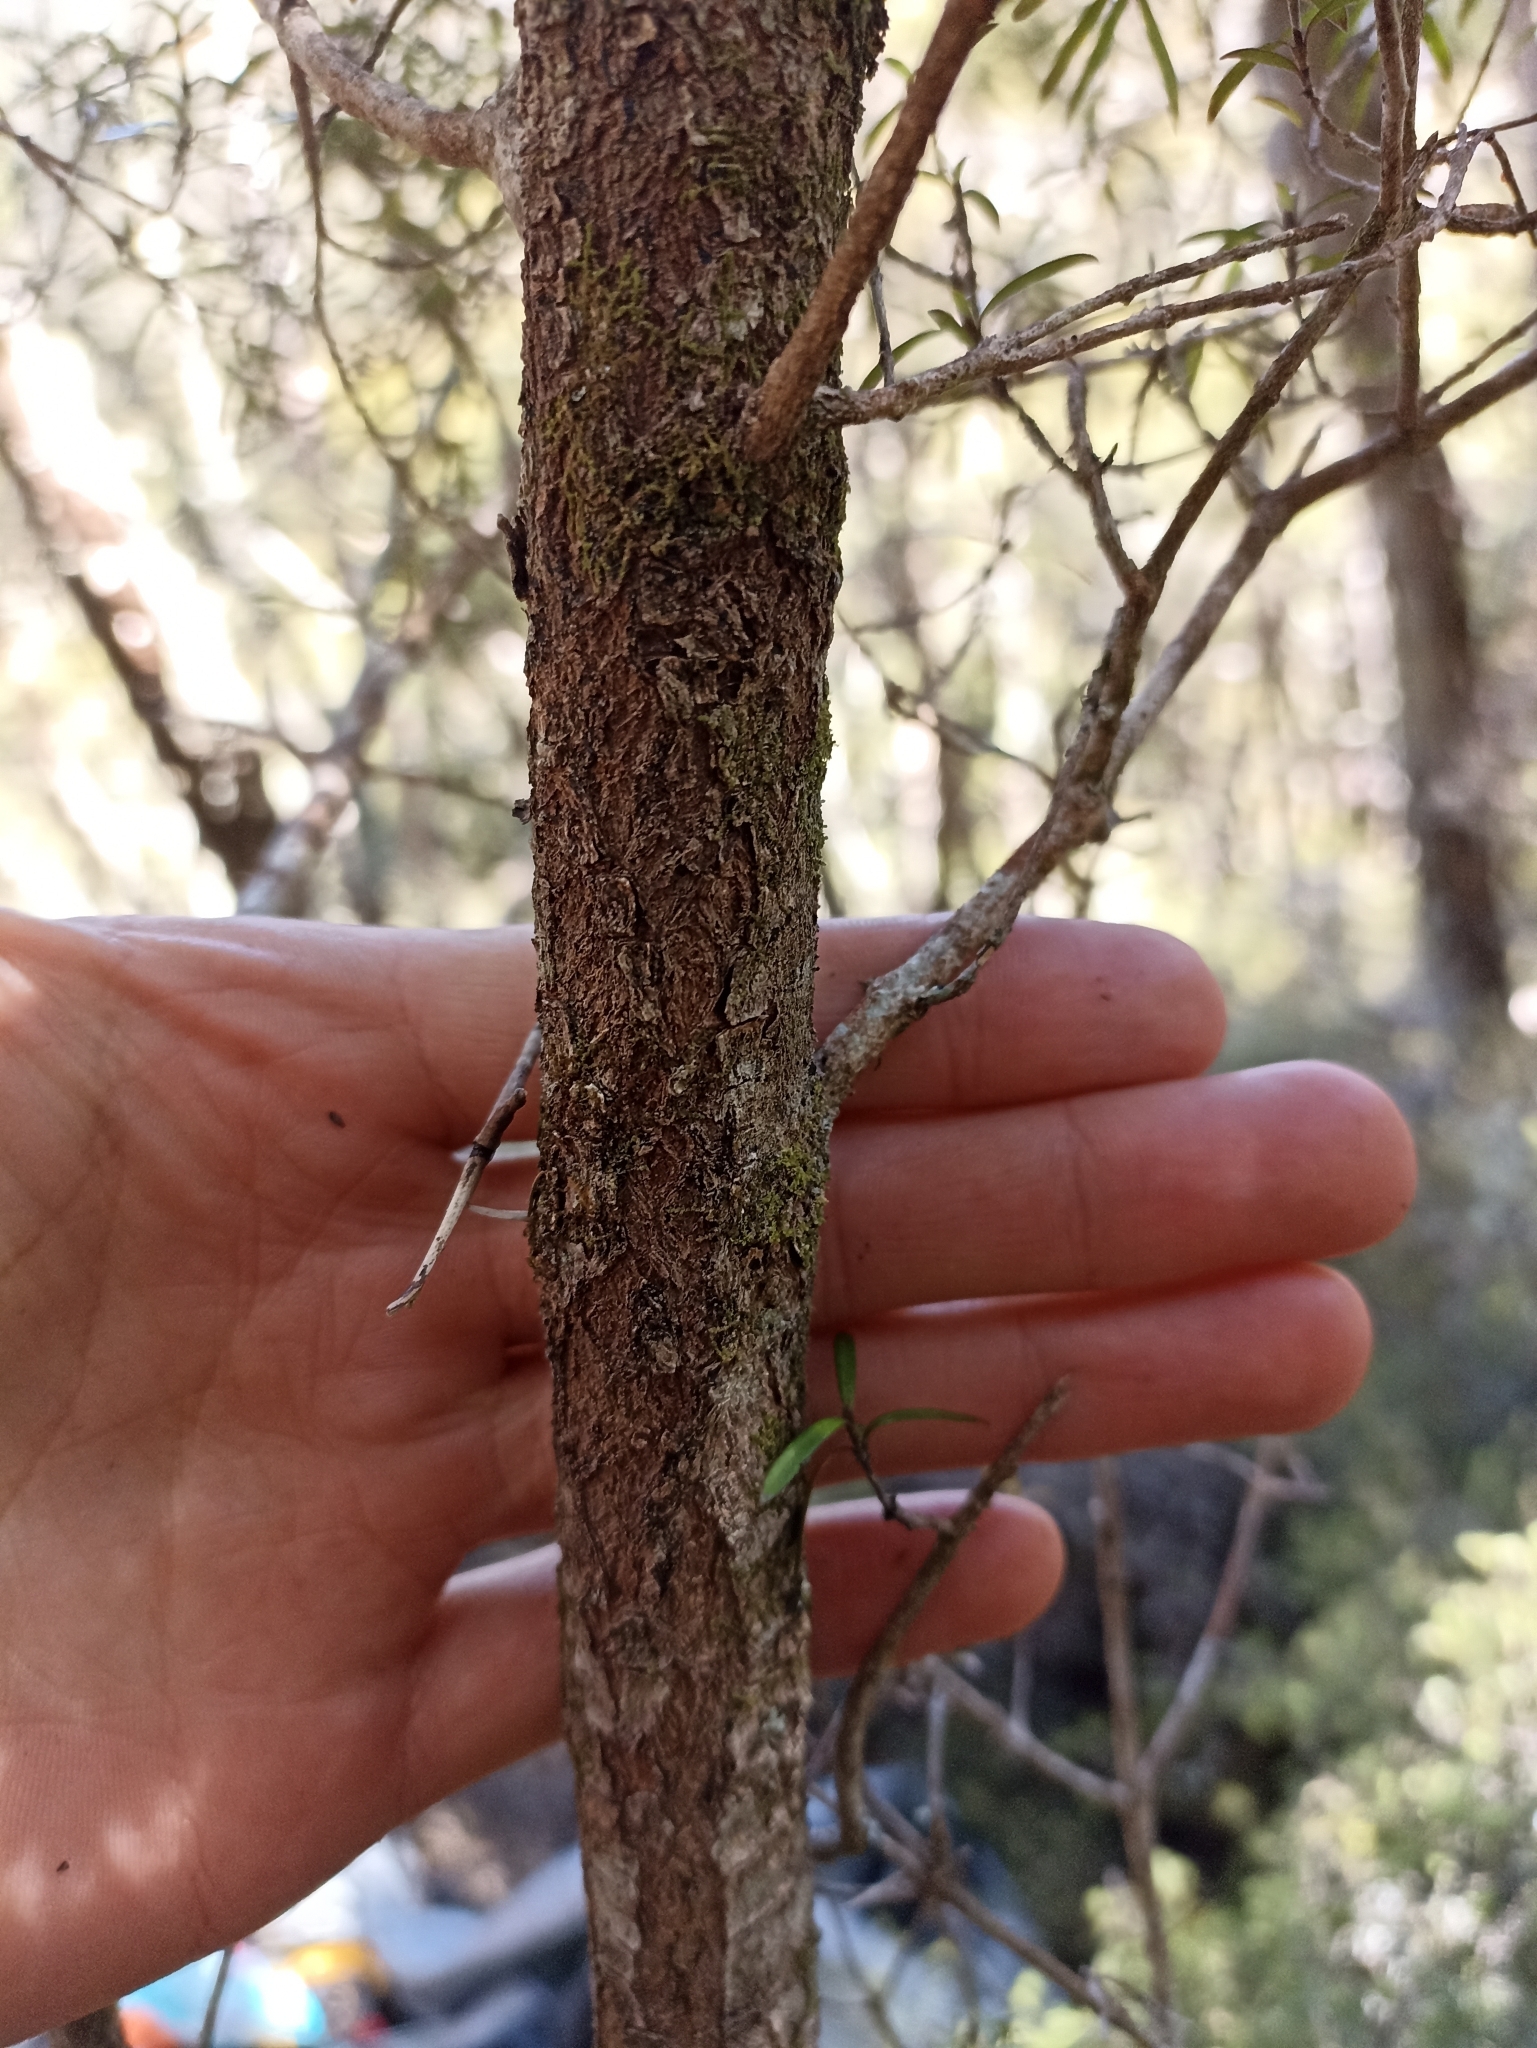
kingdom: Plantae
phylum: Tracheophyta
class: Magnoliopsida
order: Gentianales
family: Rubiaceae
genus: Coprosma
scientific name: Coprosma linariifolia
